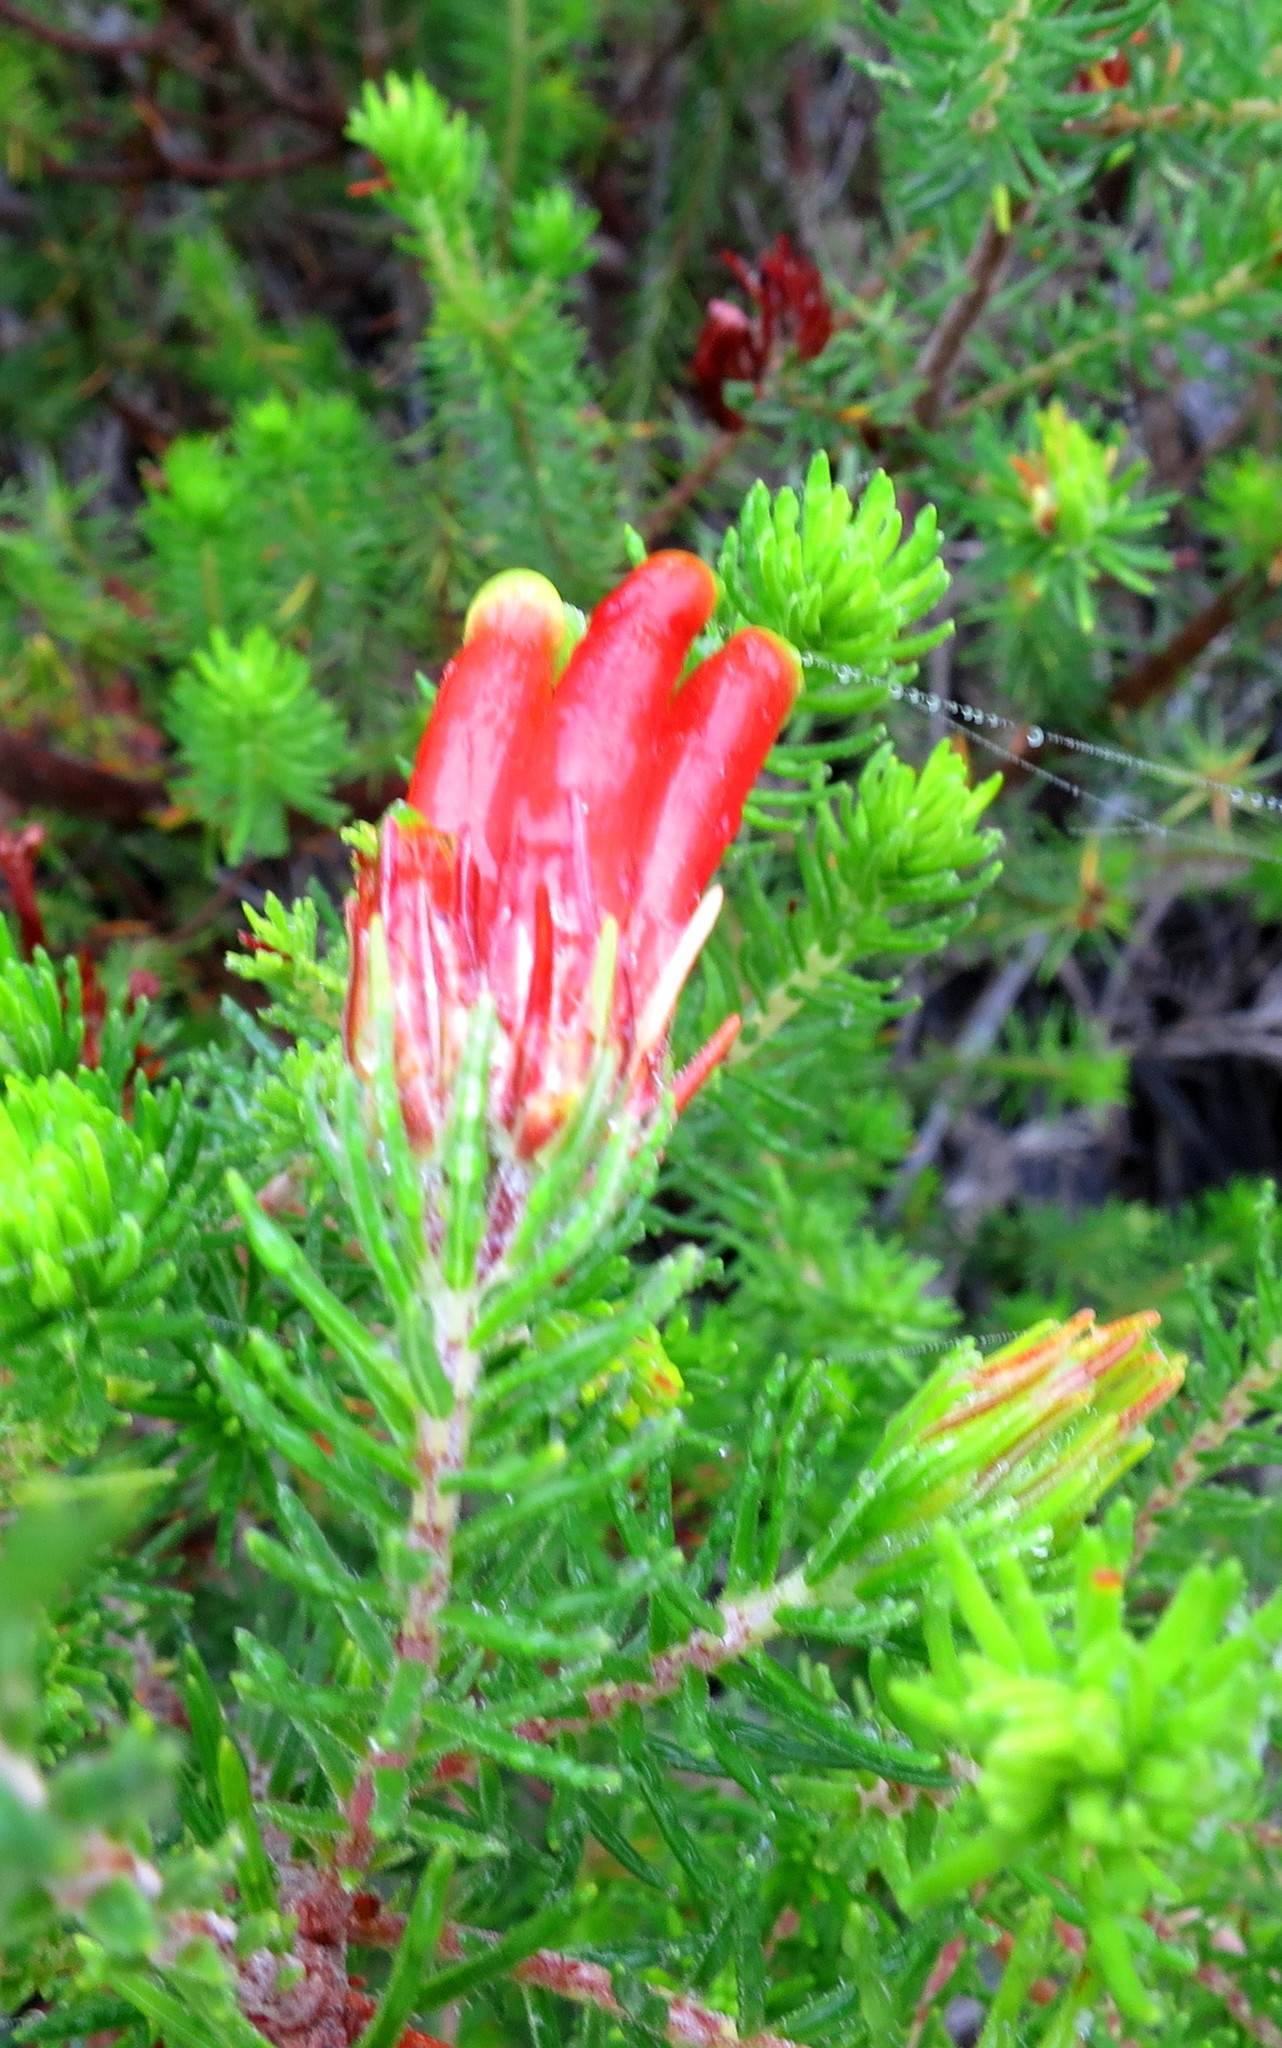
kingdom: Plantae
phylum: Tracheophyta
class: Magnoliopsida
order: Ericales
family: Ericaceae
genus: Erica
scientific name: Erica unicolor
